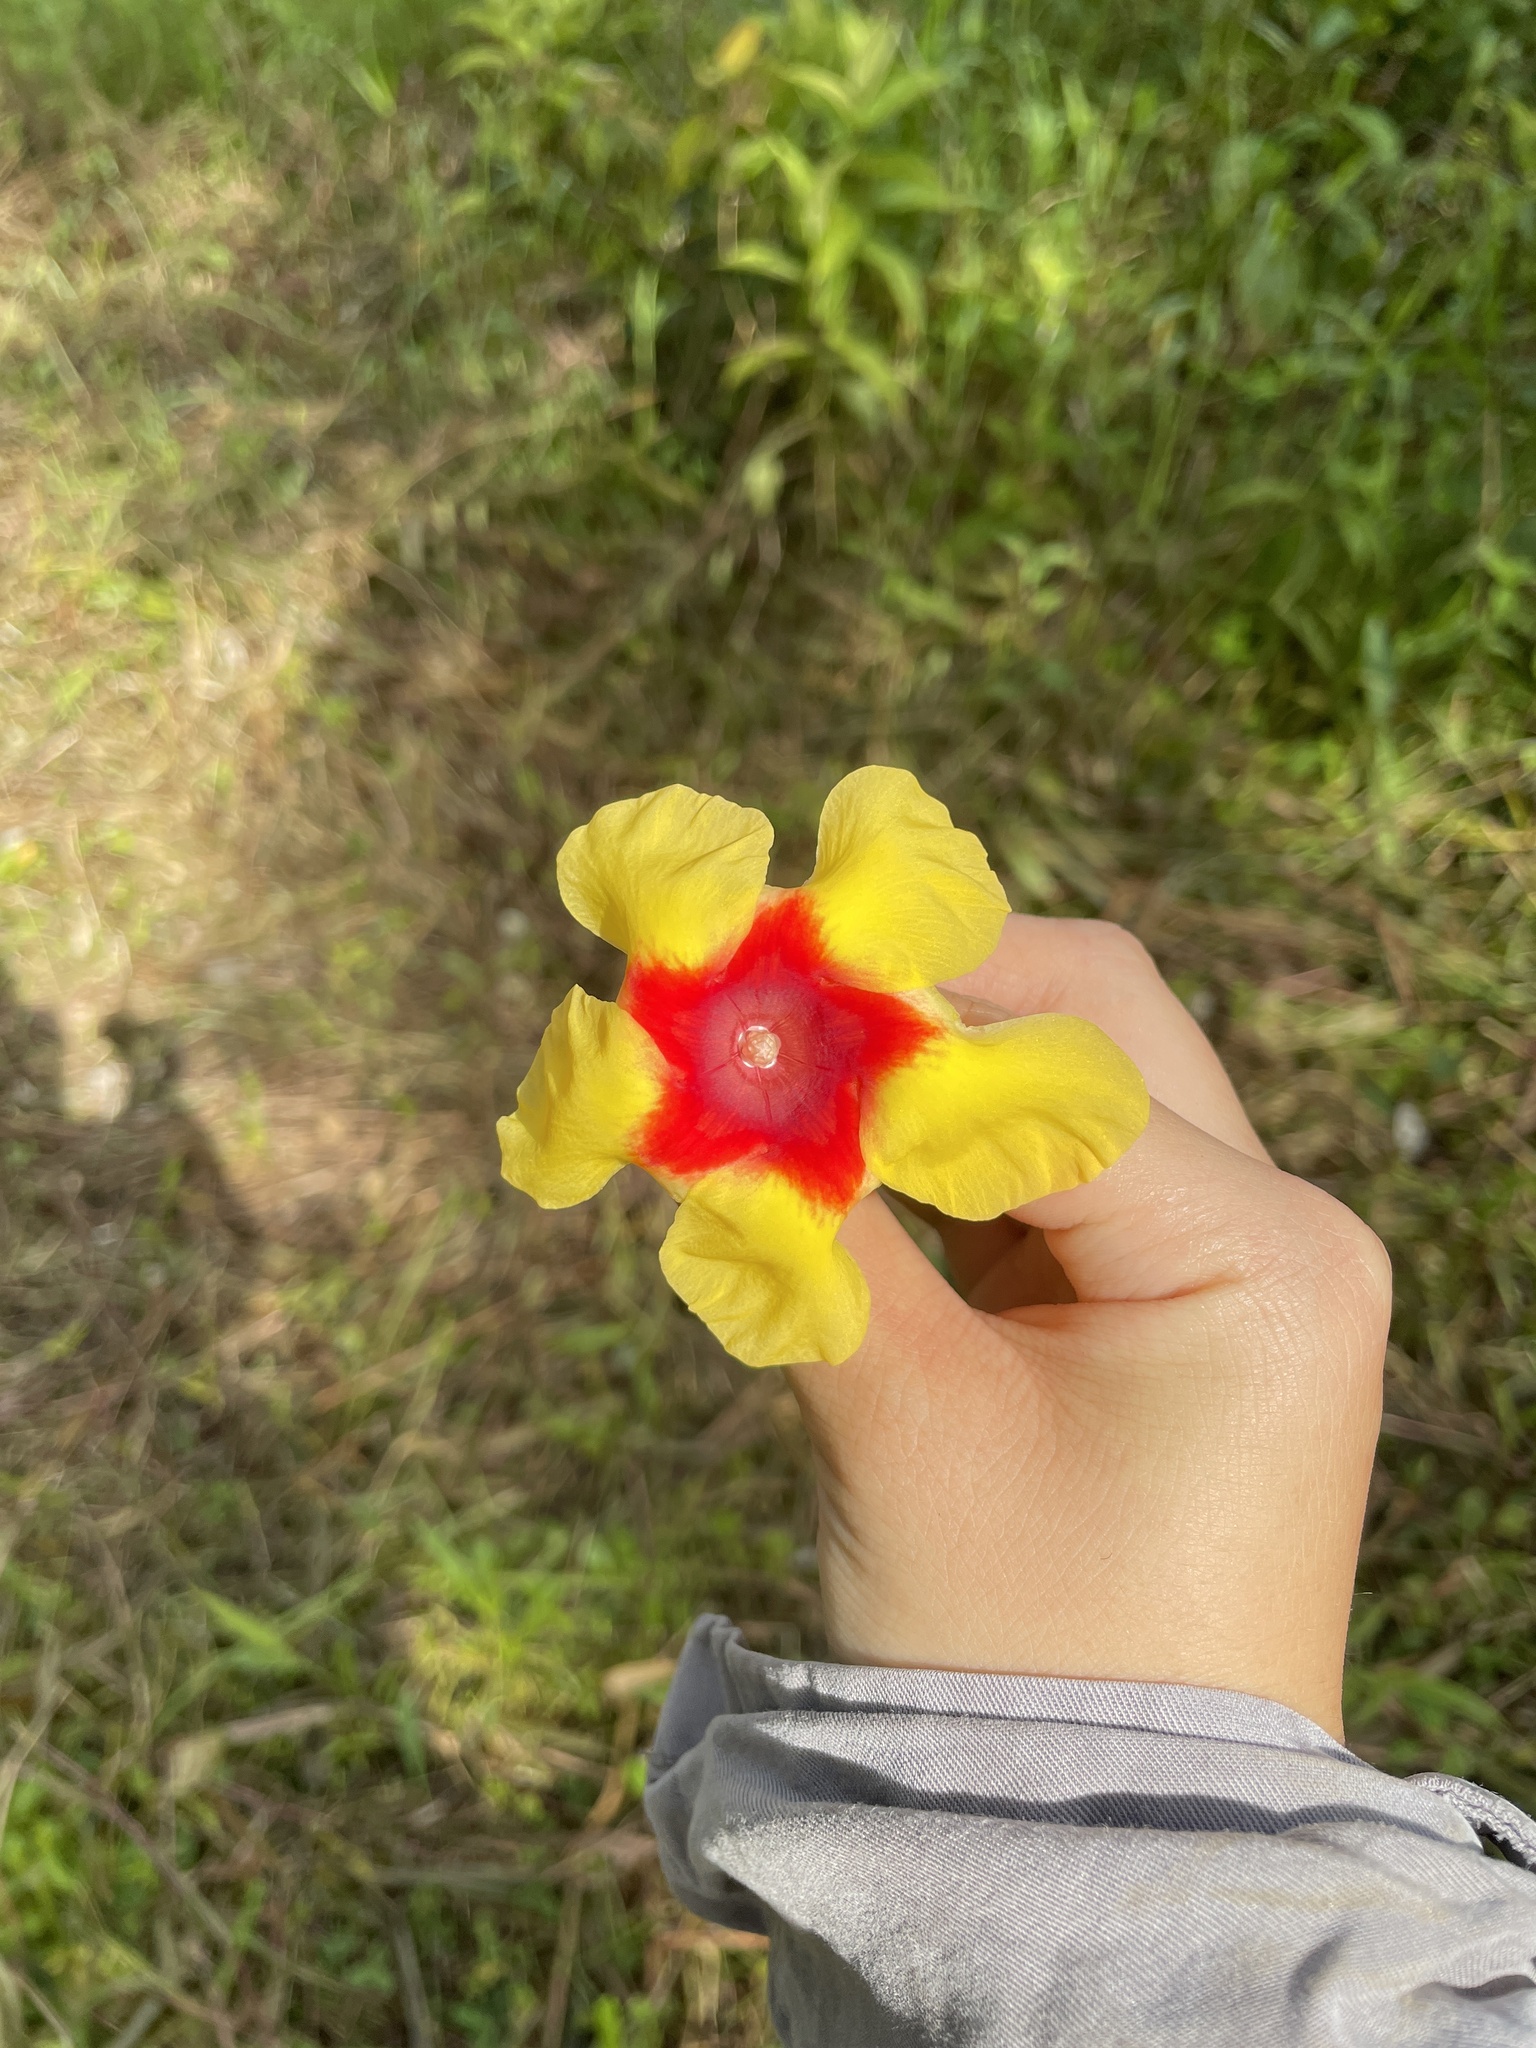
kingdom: Plantae
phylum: Tracheophyta
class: Magnoliopsida
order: Gentianales
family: Apocynaceae
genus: Mandevilla
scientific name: Mandevilla hirsuta
